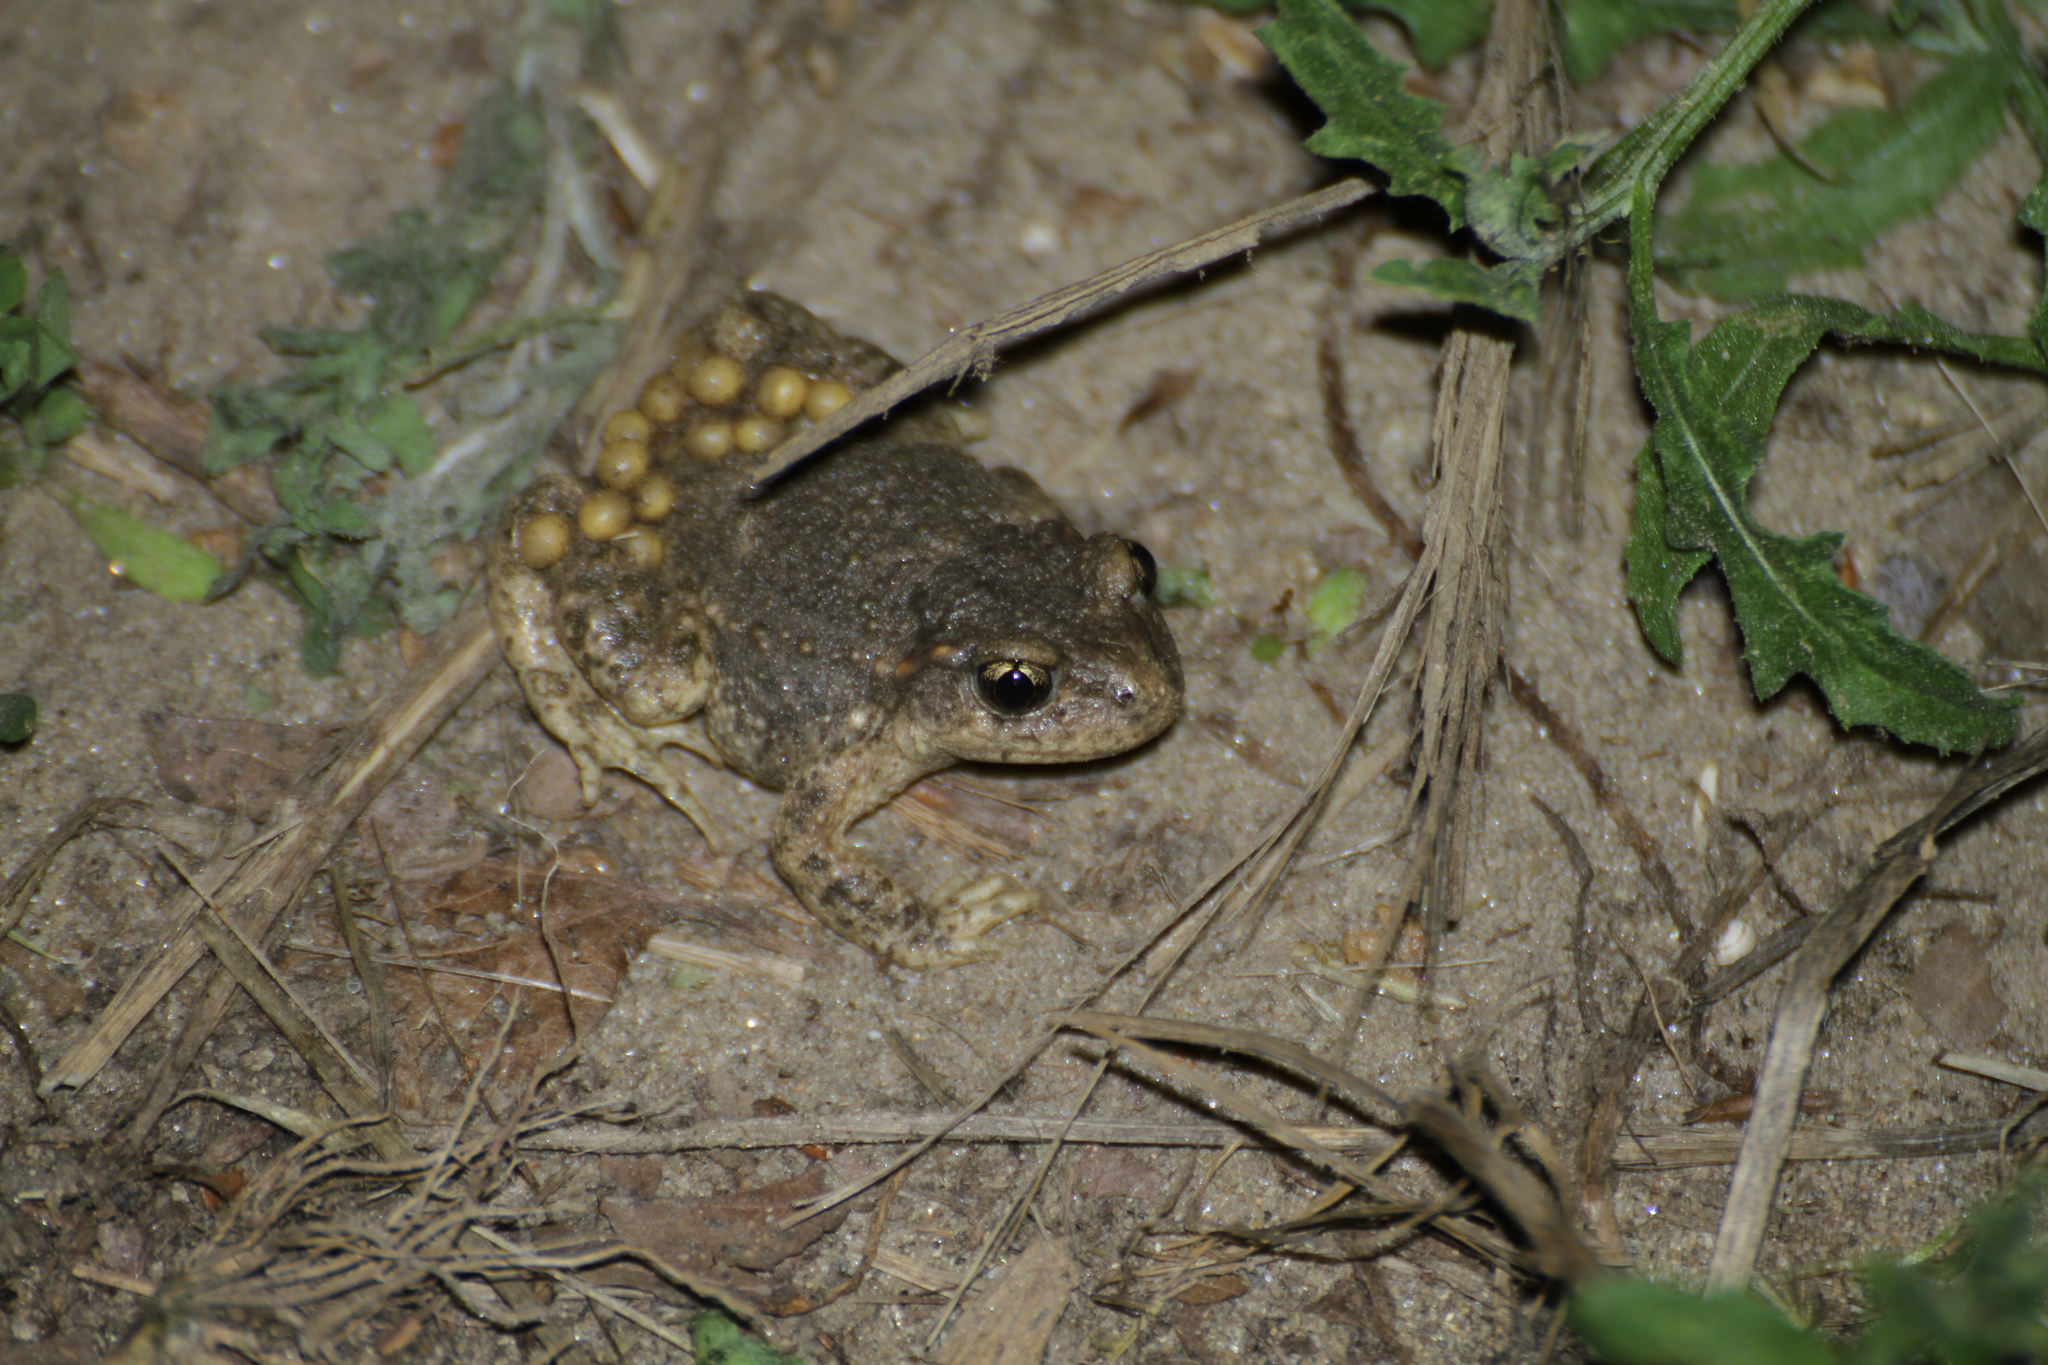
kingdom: Animalia
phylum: Chordata
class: Amphibia
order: Anura
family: Alytidae
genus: Alytes
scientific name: Alytes obstetricans
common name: Midwife toad
